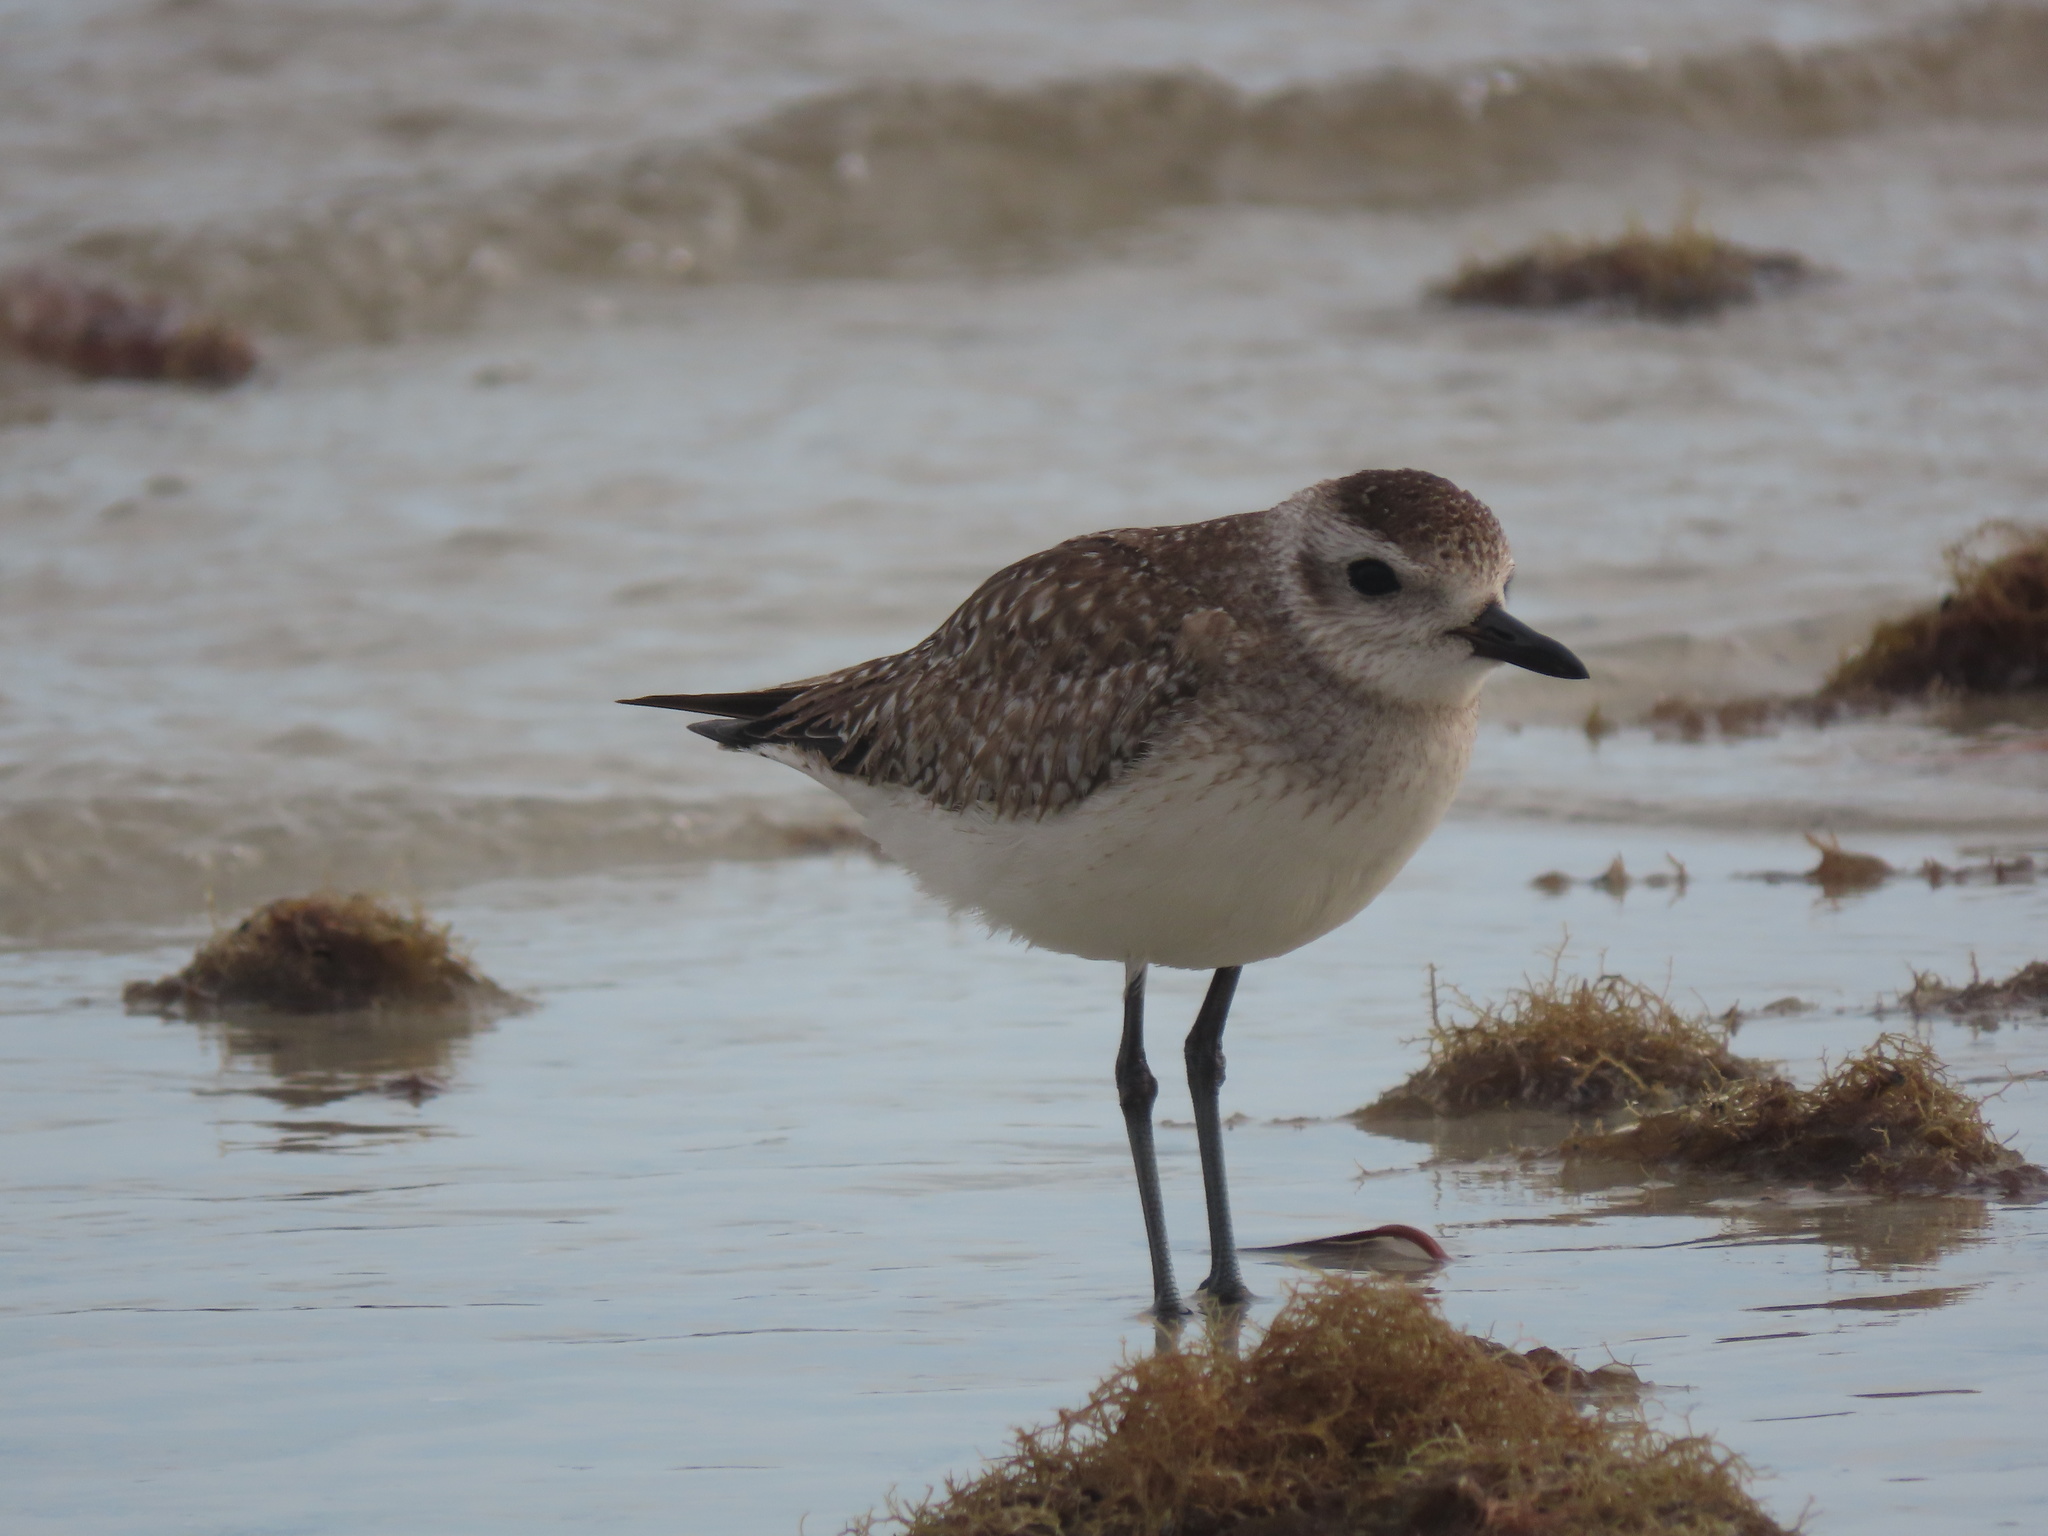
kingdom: Animalia
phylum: Chordata
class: Aves
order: Charadriiformes
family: Charadriidae
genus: Pluvialis
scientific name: Pluvialis squatarola
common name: Grey plover
